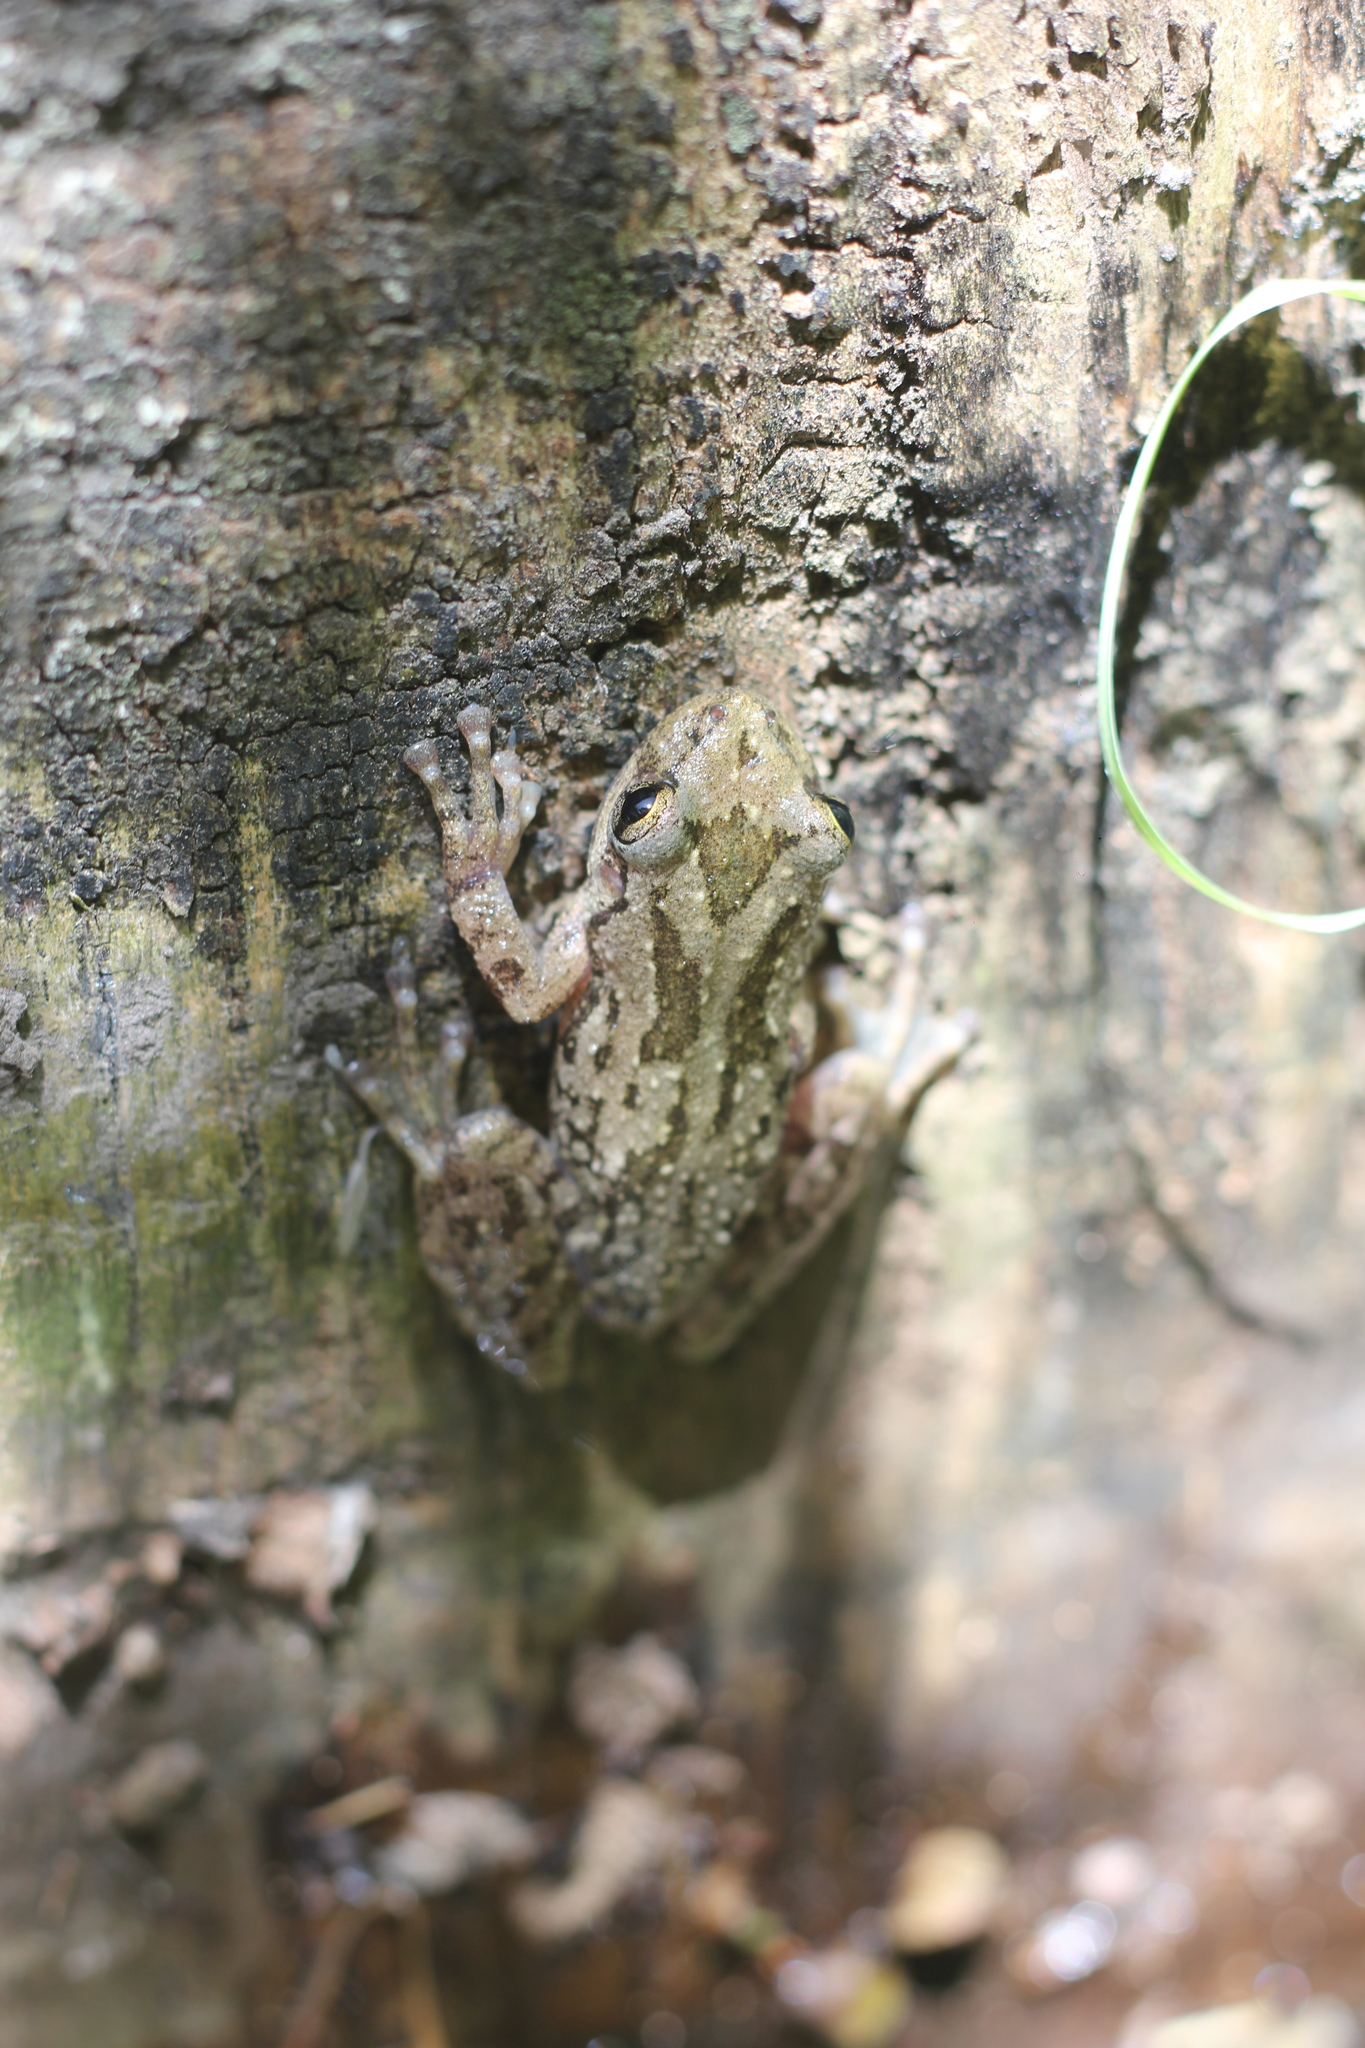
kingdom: Animalia
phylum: Chordata
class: Amphibia
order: Anura
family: Hylidae
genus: Scinax
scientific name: Scinax granulatus
